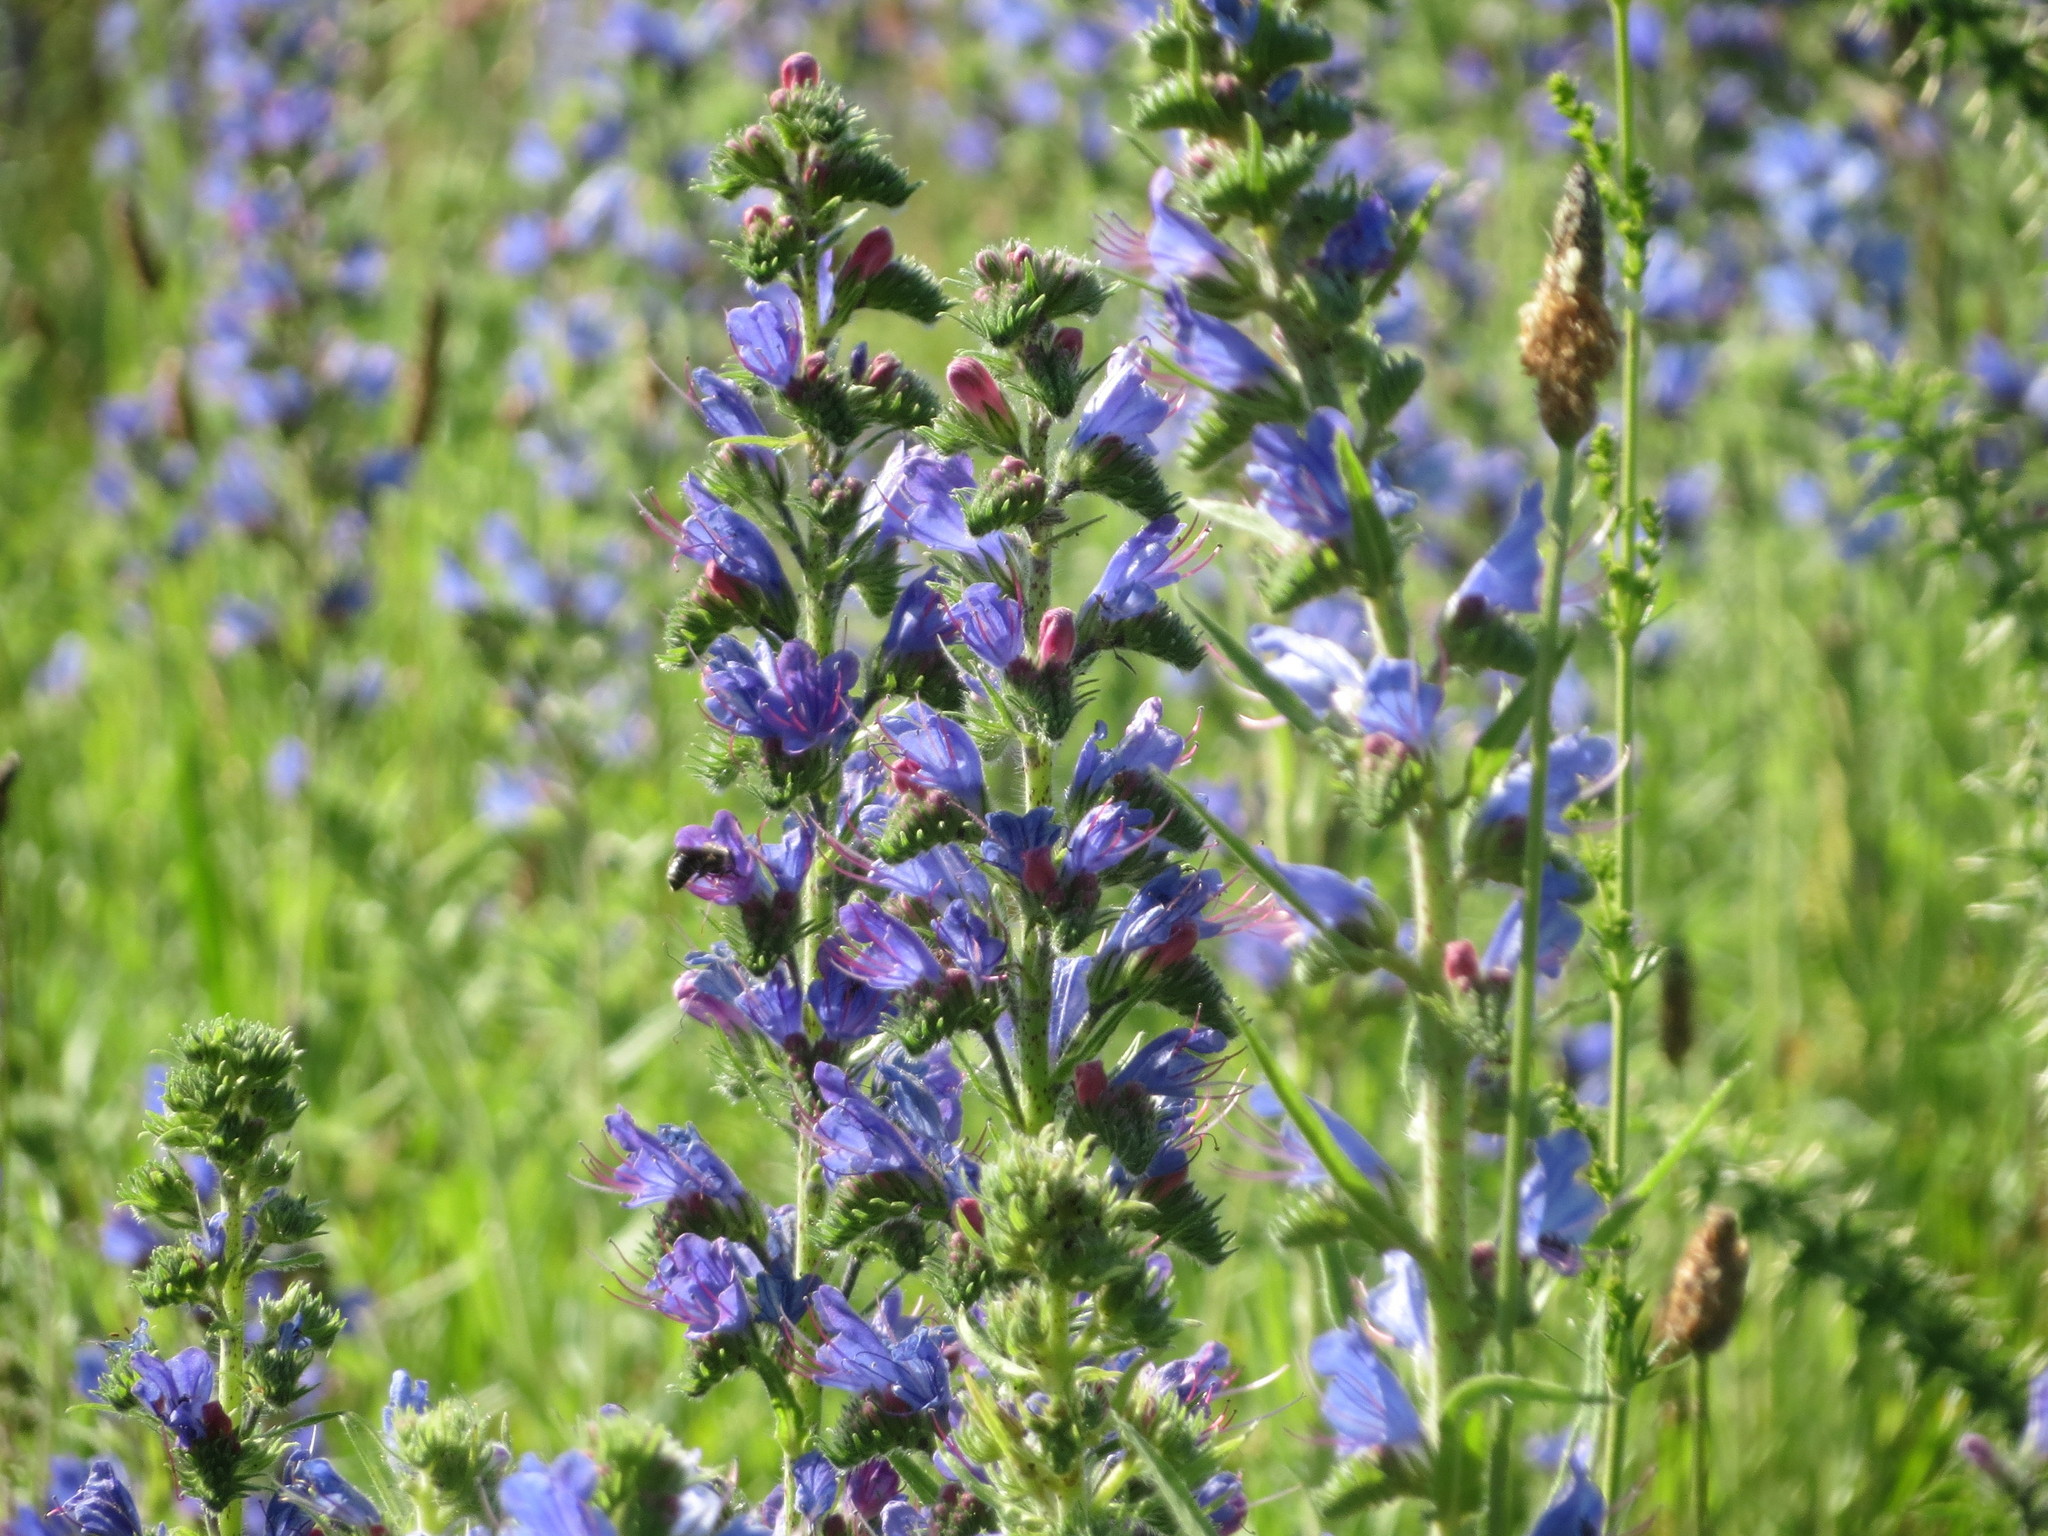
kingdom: Plantae
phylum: Tracheophyta
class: Magnoliopsida
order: Boraginales
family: Boraginaceae
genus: Echium
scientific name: Echium vulgare
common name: Common viper's bugloss
